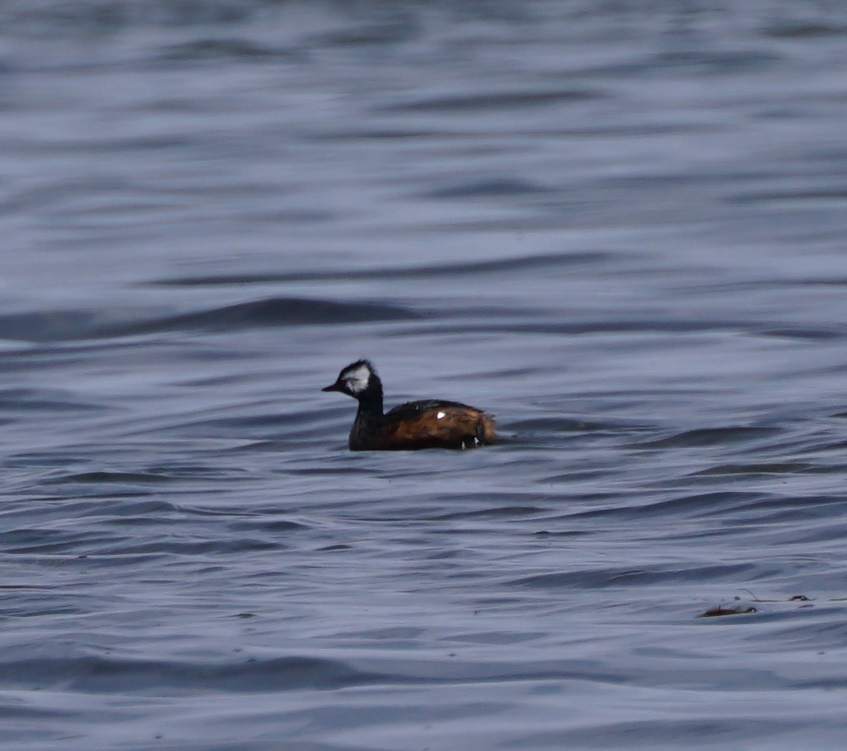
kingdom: Animalia
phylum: Chordata
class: Aves
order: Podicipediformes
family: Podicipedidae
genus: Rollandia
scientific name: Rollandia rolland
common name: White-tufted grebe
